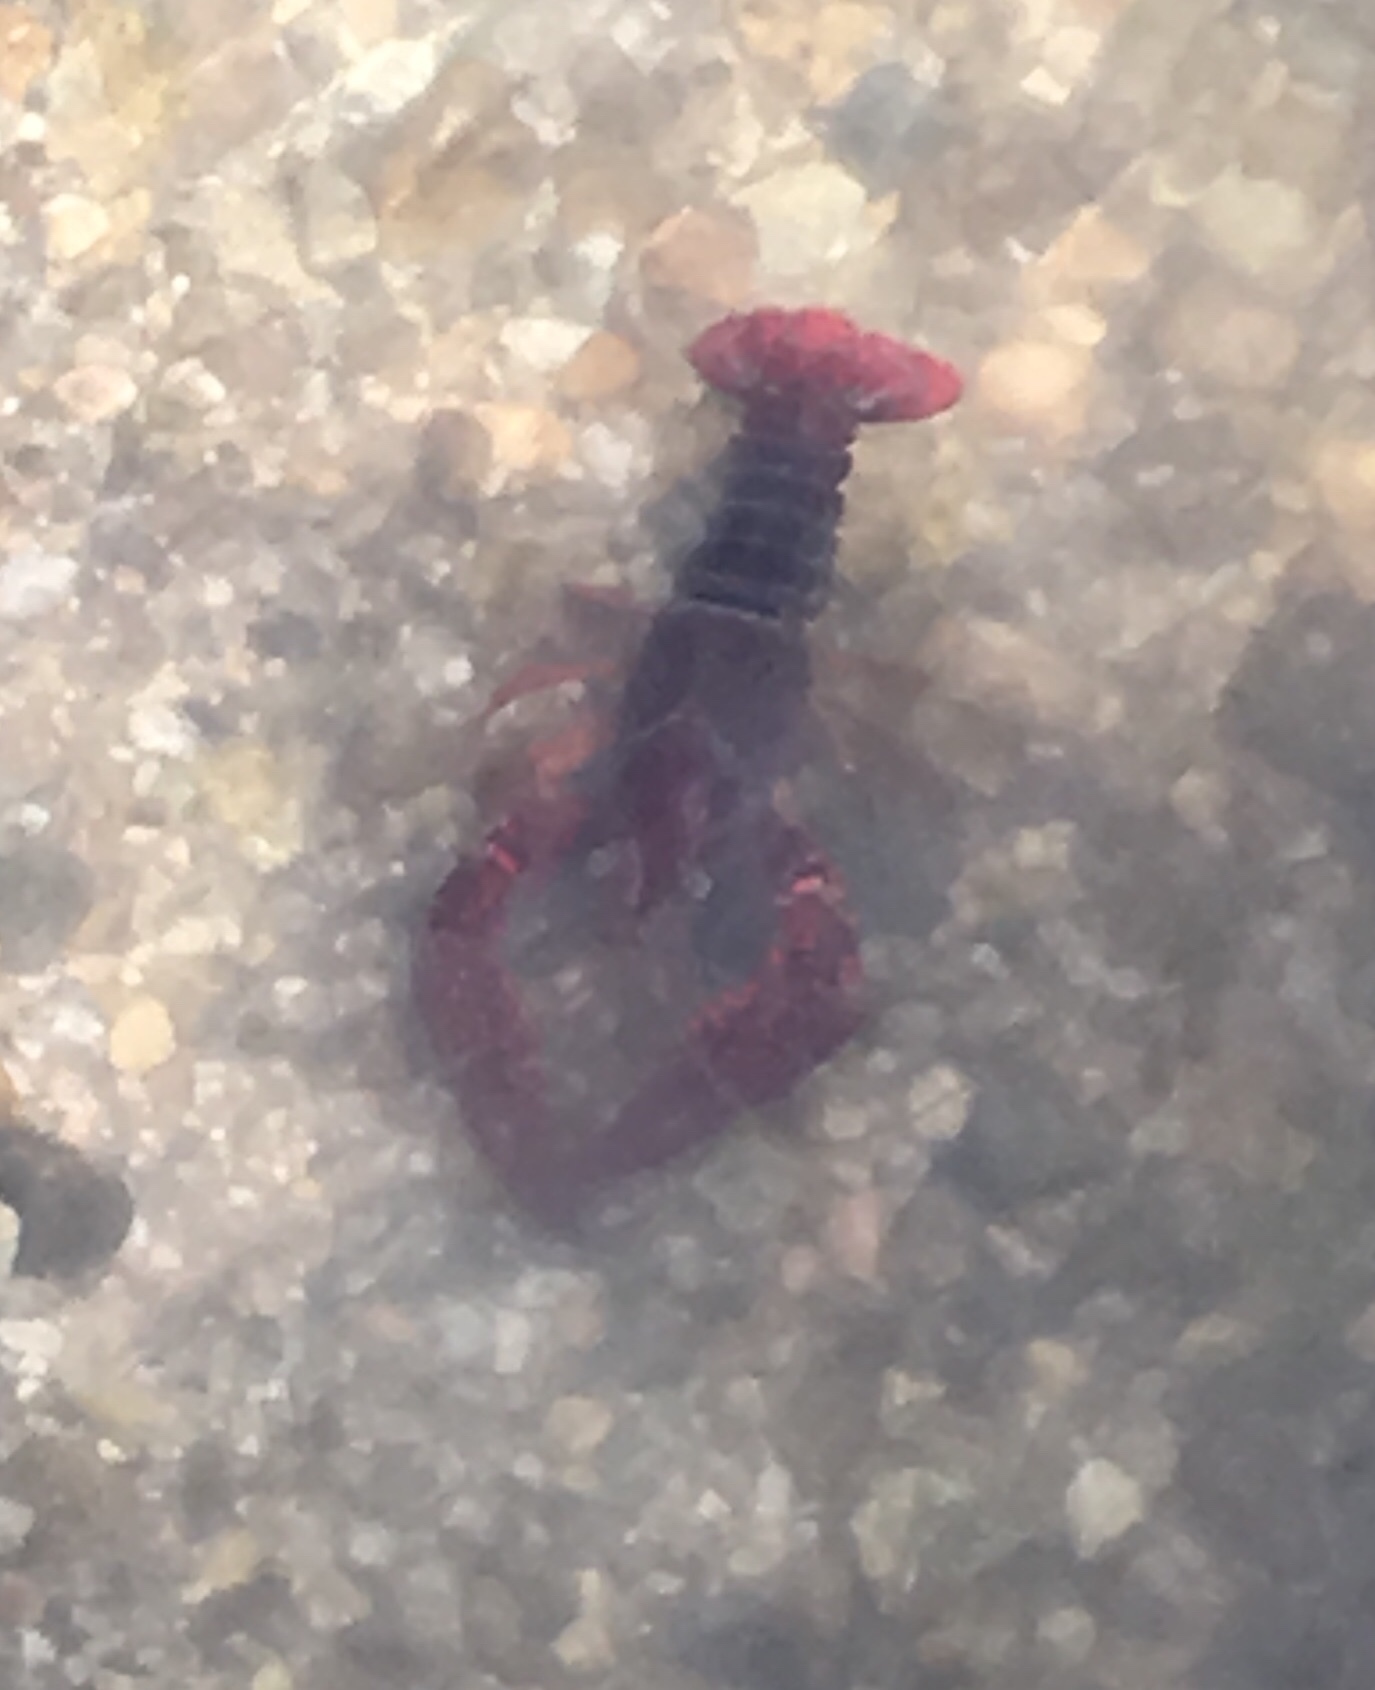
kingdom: Animalia
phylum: Arthropoda
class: Malacostraca
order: Decapoda
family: Cambaridae
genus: Procambarus
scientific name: Procambarus clarkii
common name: Red swamp crayfish
